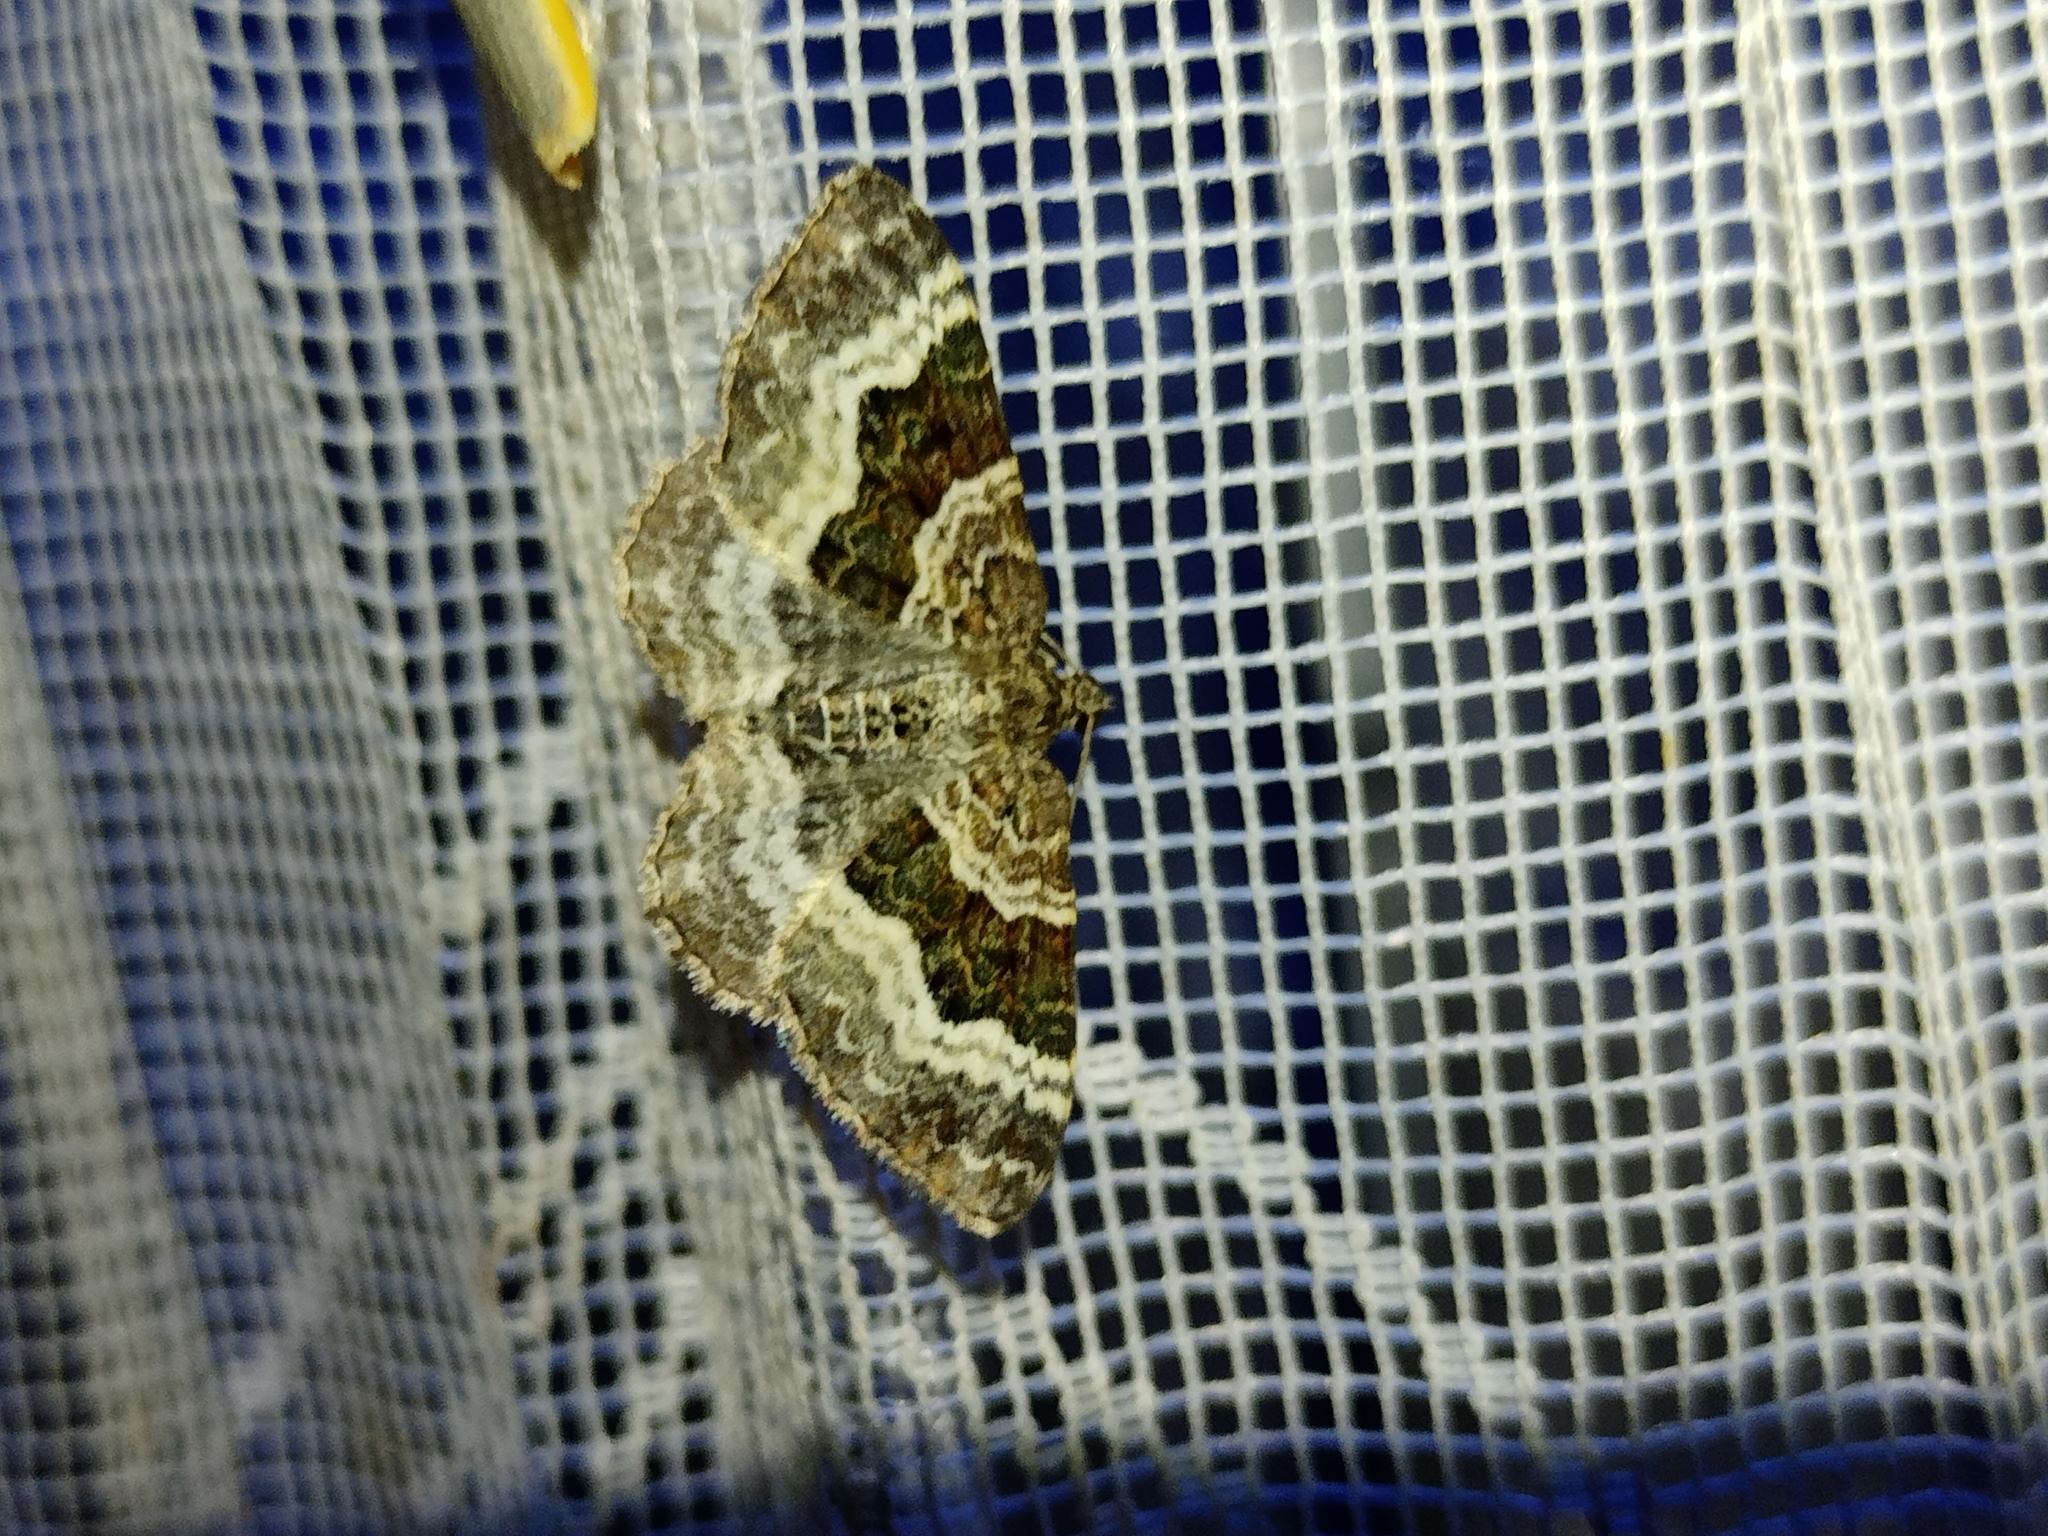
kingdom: Animalia
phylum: Arthropoda
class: Insecta
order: Lepidoptera
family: Geometridae
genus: Epirrhoe
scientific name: Epirrhoe alternata
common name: Common carpet
